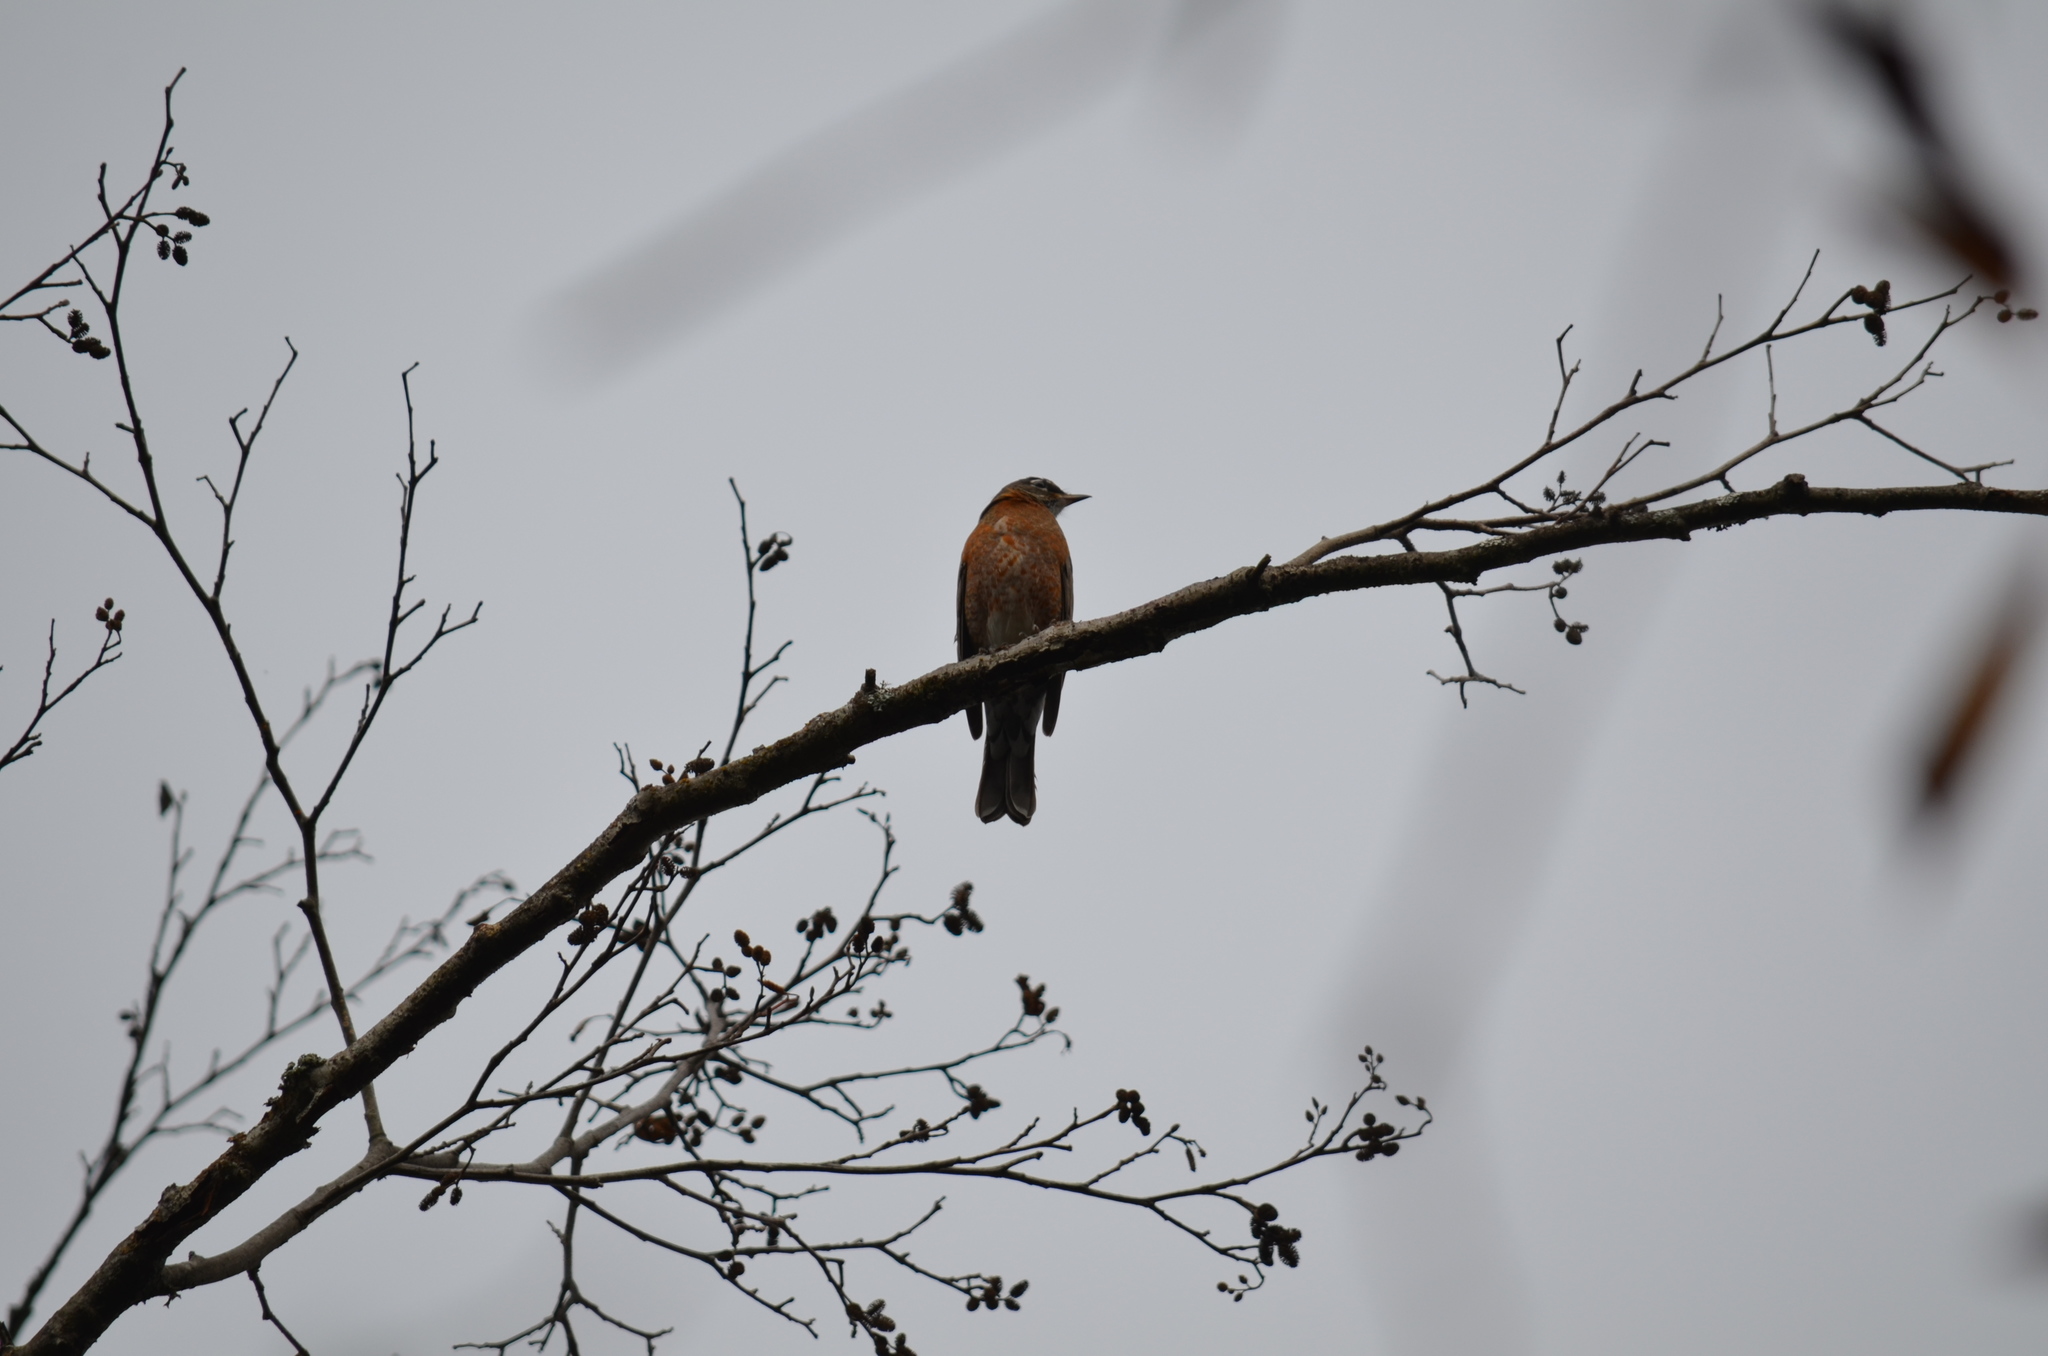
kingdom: Animalia
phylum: Chordata
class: Aves
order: Passeriformes
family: Turdidae
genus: Turdus
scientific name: Turdus migratorius
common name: American robin
